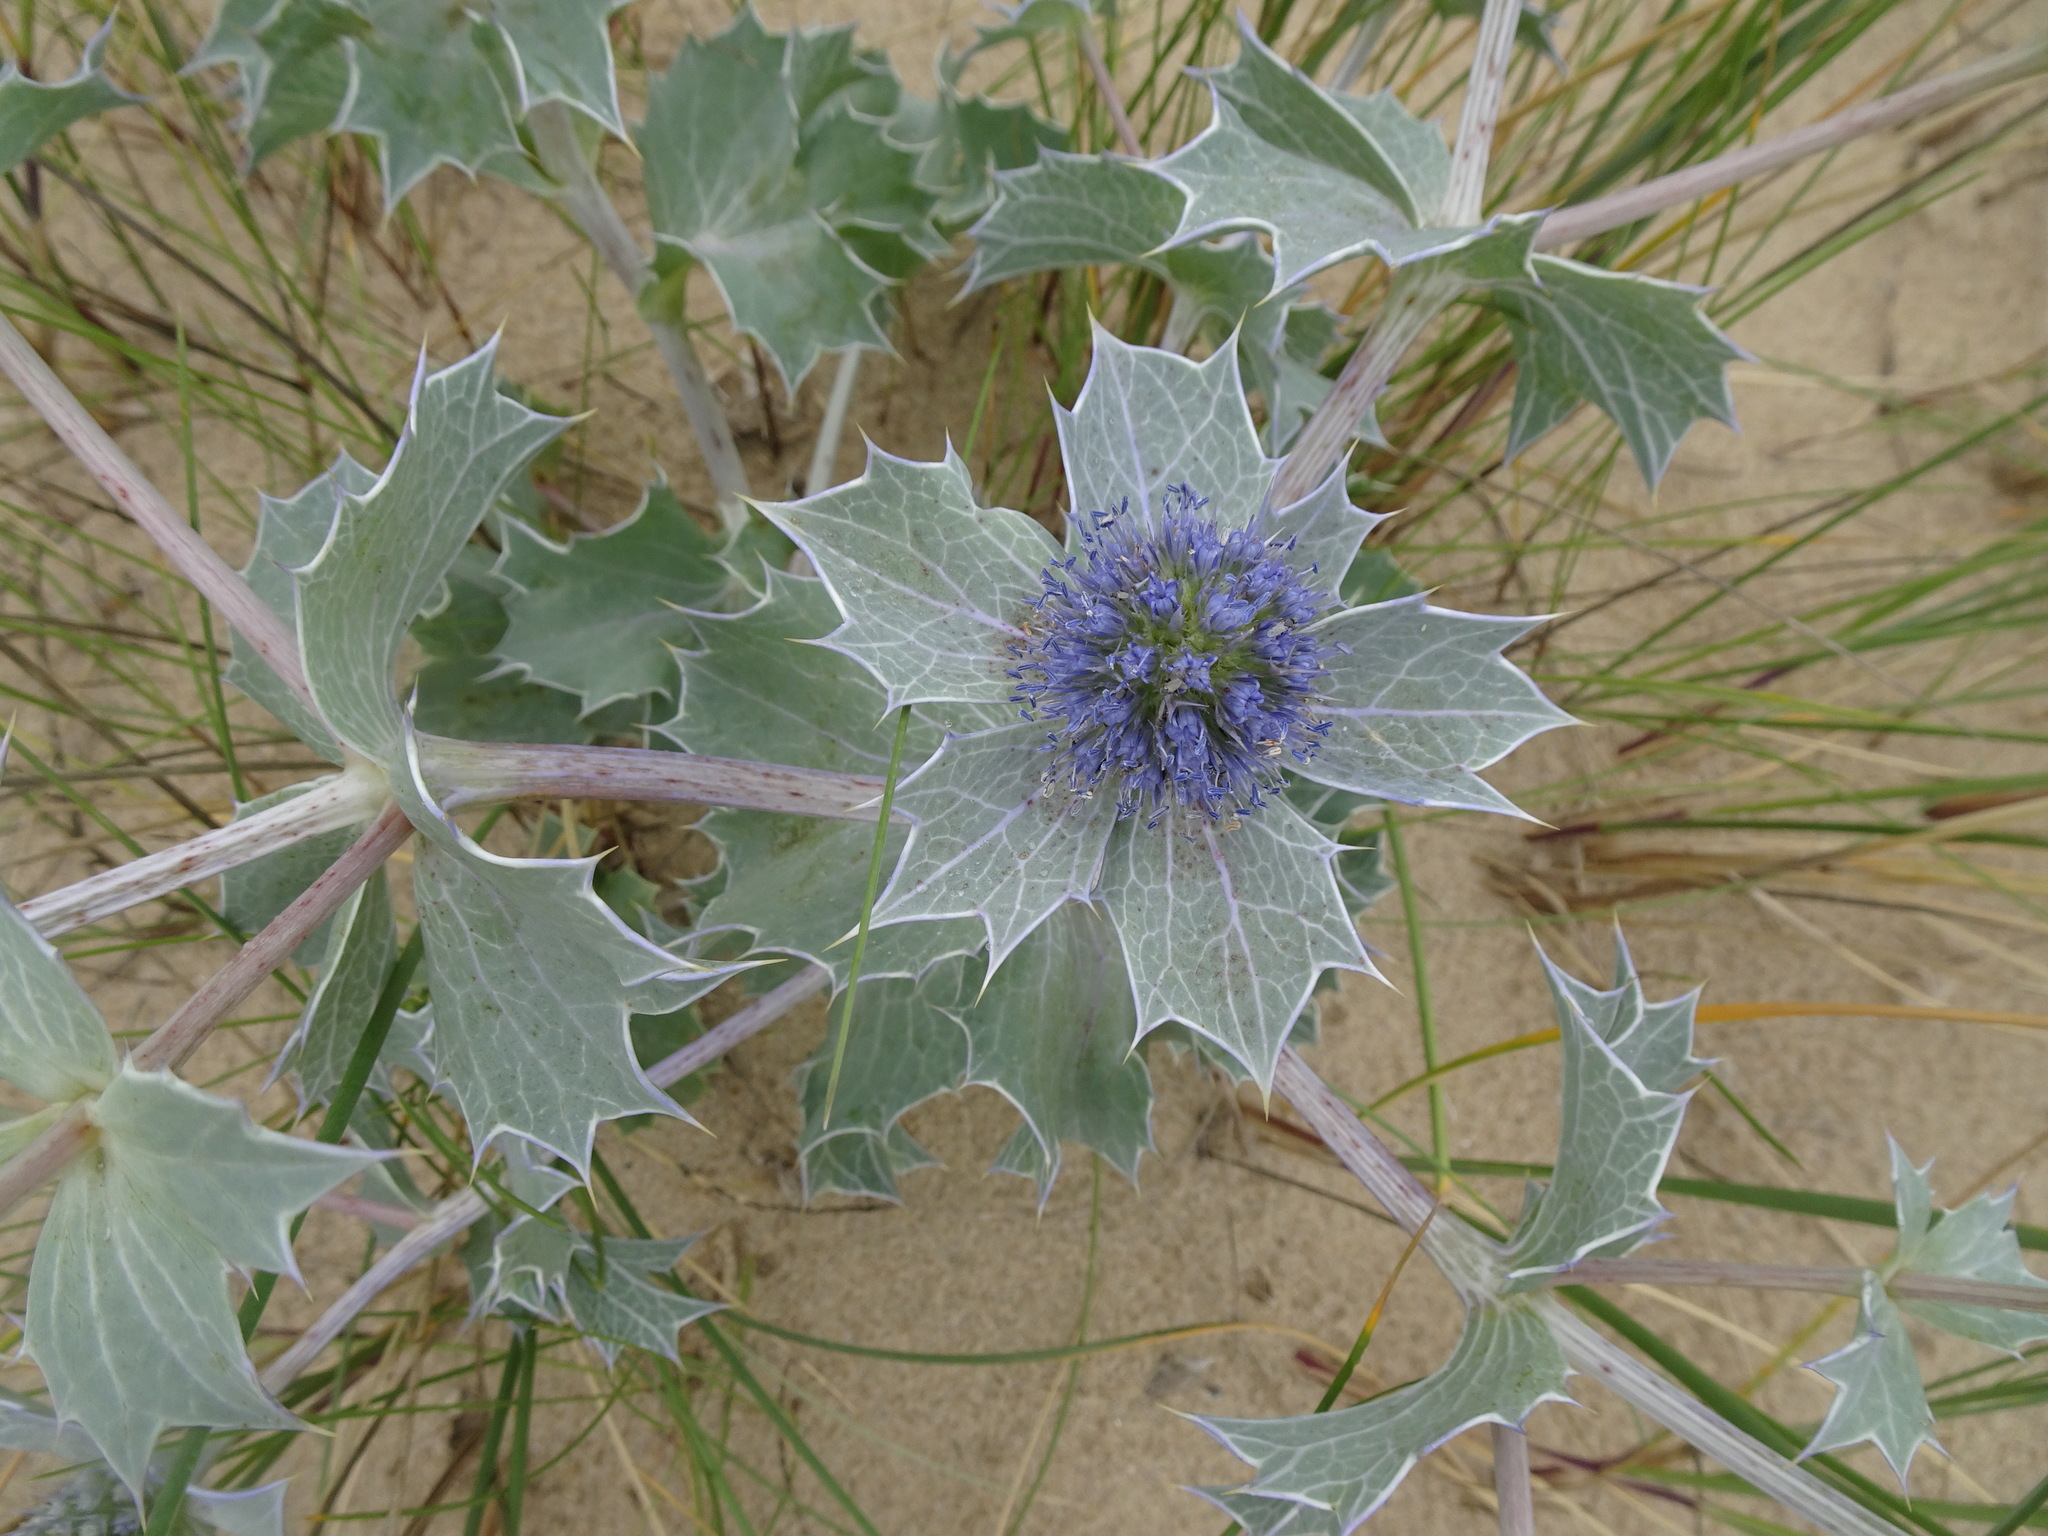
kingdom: Plantae
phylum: Tracheophyta
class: Magnoliopsida
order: Apiales
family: Apiaceae
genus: Eryngium
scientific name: Eryngium maritimum
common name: Sea-holly
